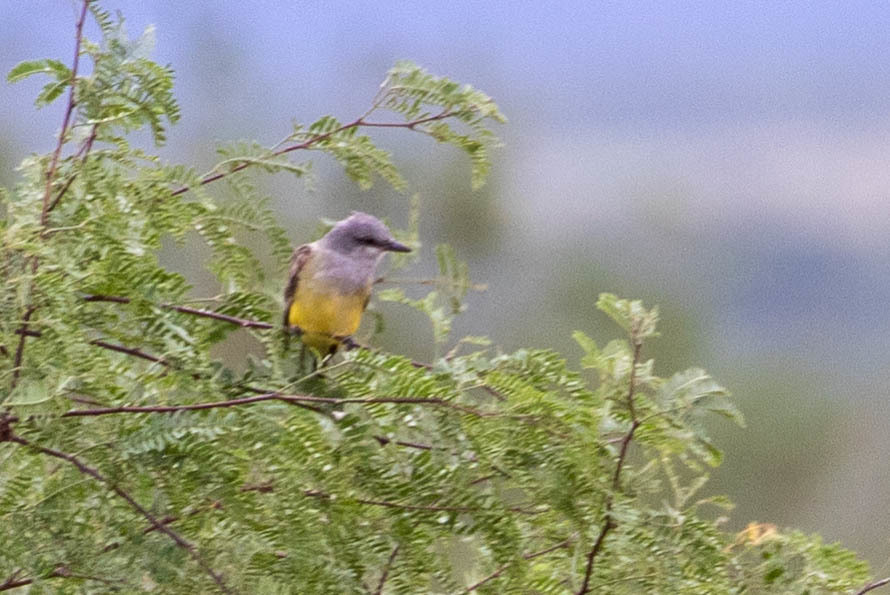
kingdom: Animalia
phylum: Chordata
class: Aves
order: Passeriformes
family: Tyrannidae
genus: Tyrannus
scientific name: Tyrannus vociferans
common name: Cassin's kingbird
